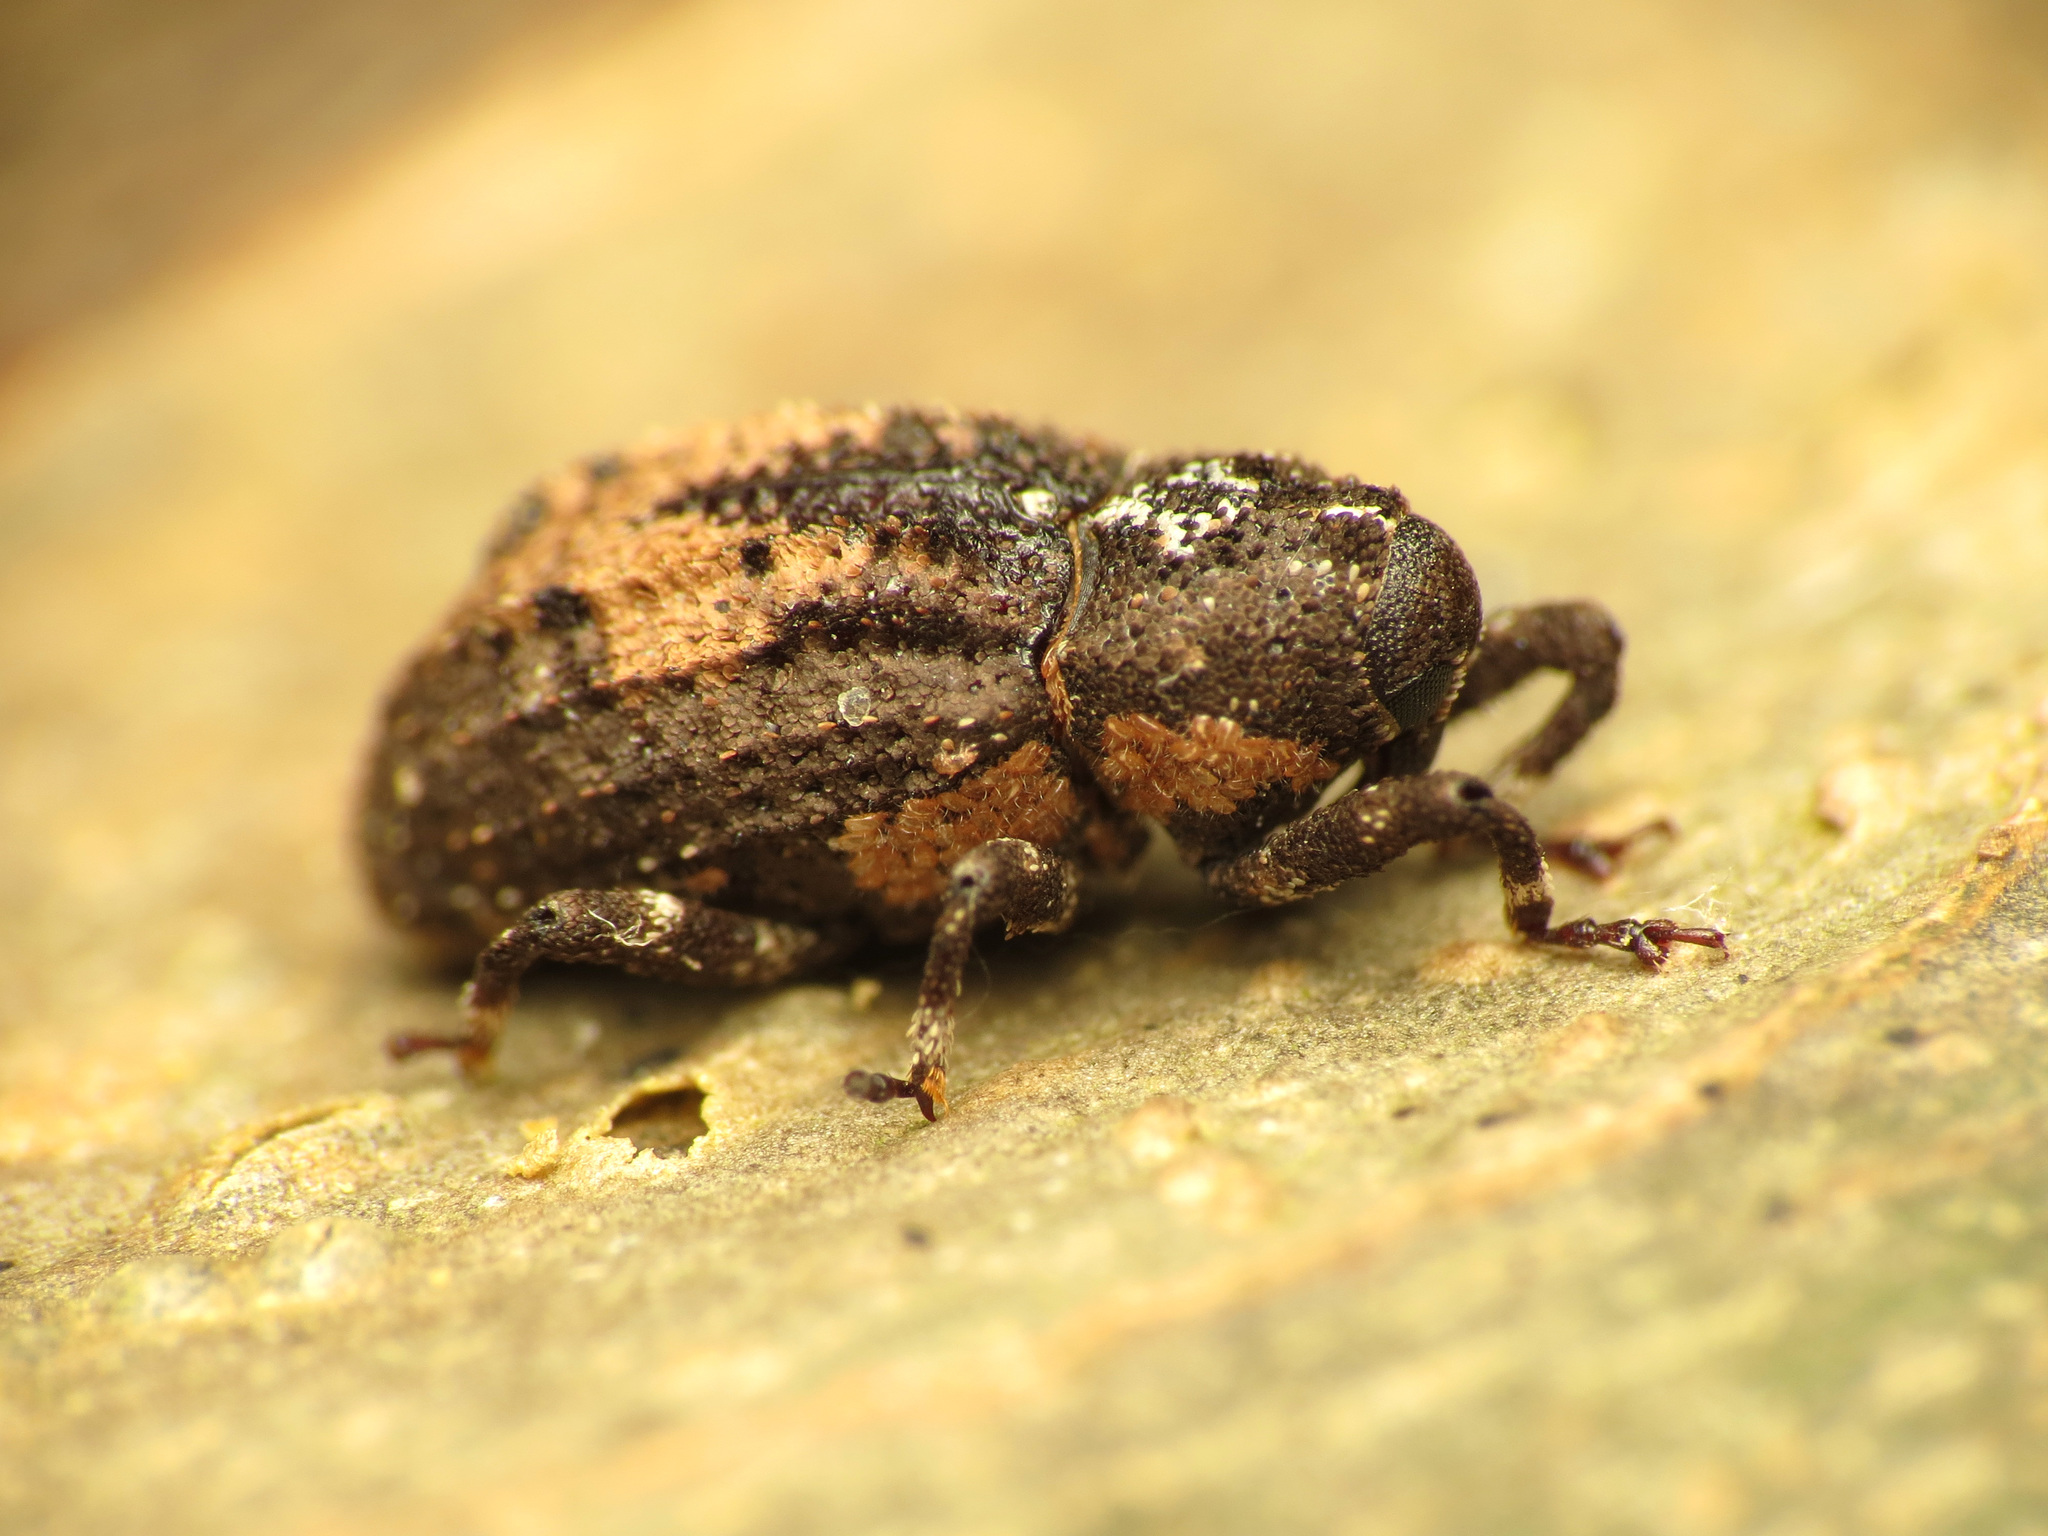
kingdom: Animalia
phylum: Arthropoda
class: Insecta
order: Coleoptera
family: Curculionidae
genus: Cophes
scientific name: Cophes obtentus
